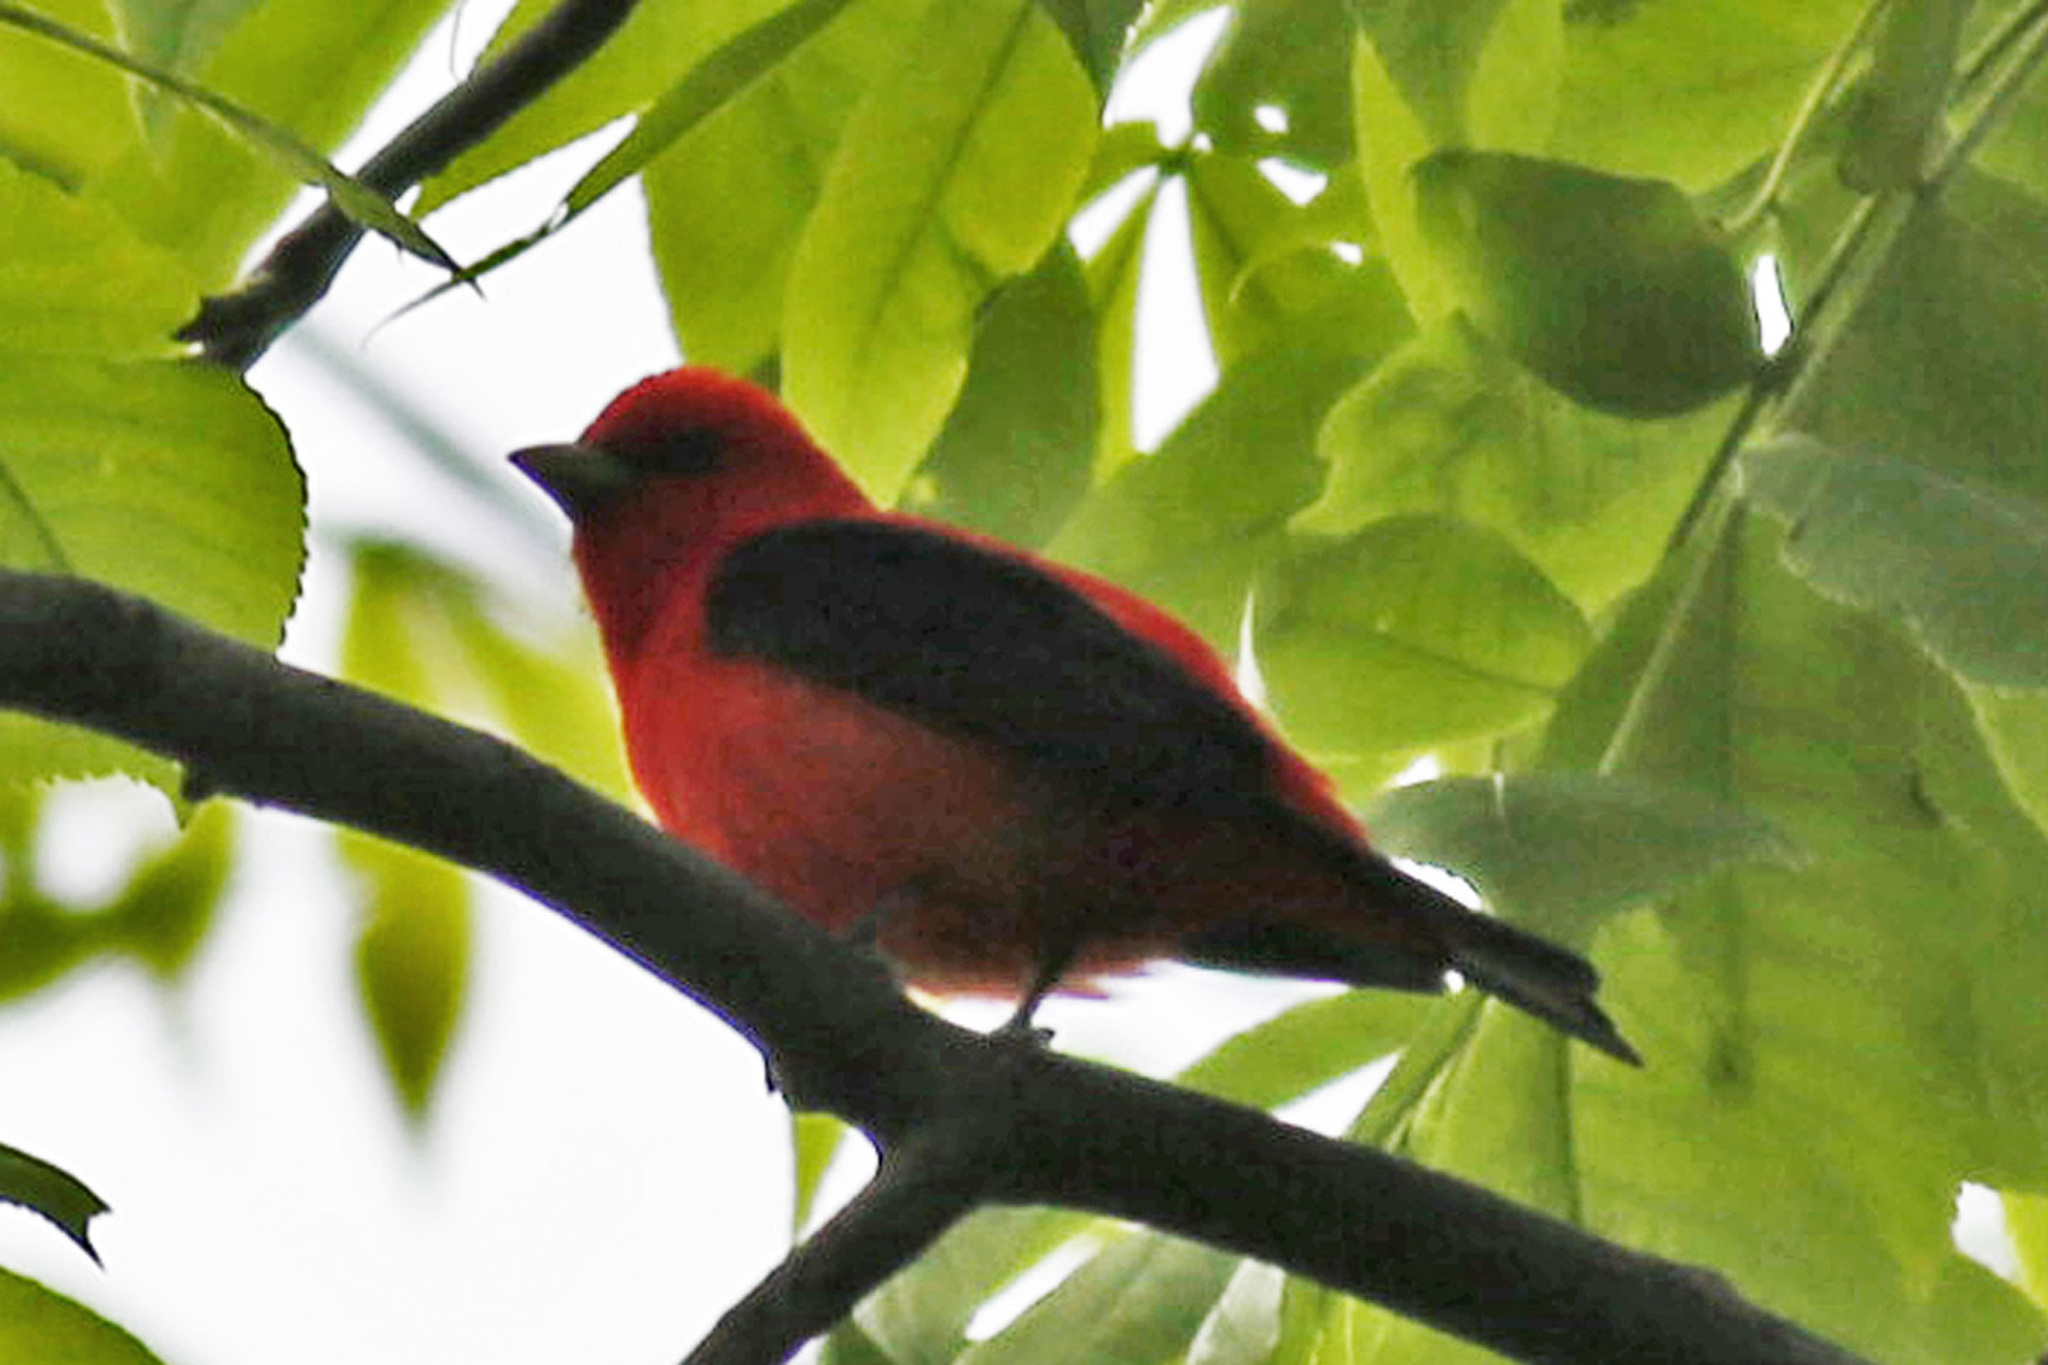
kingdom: Animalia
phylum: Chordata
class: Aves
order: Passeriformes
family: Cardinalidae
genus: Piranga
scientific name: Piranga olivacea
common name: Scarlet tanager
